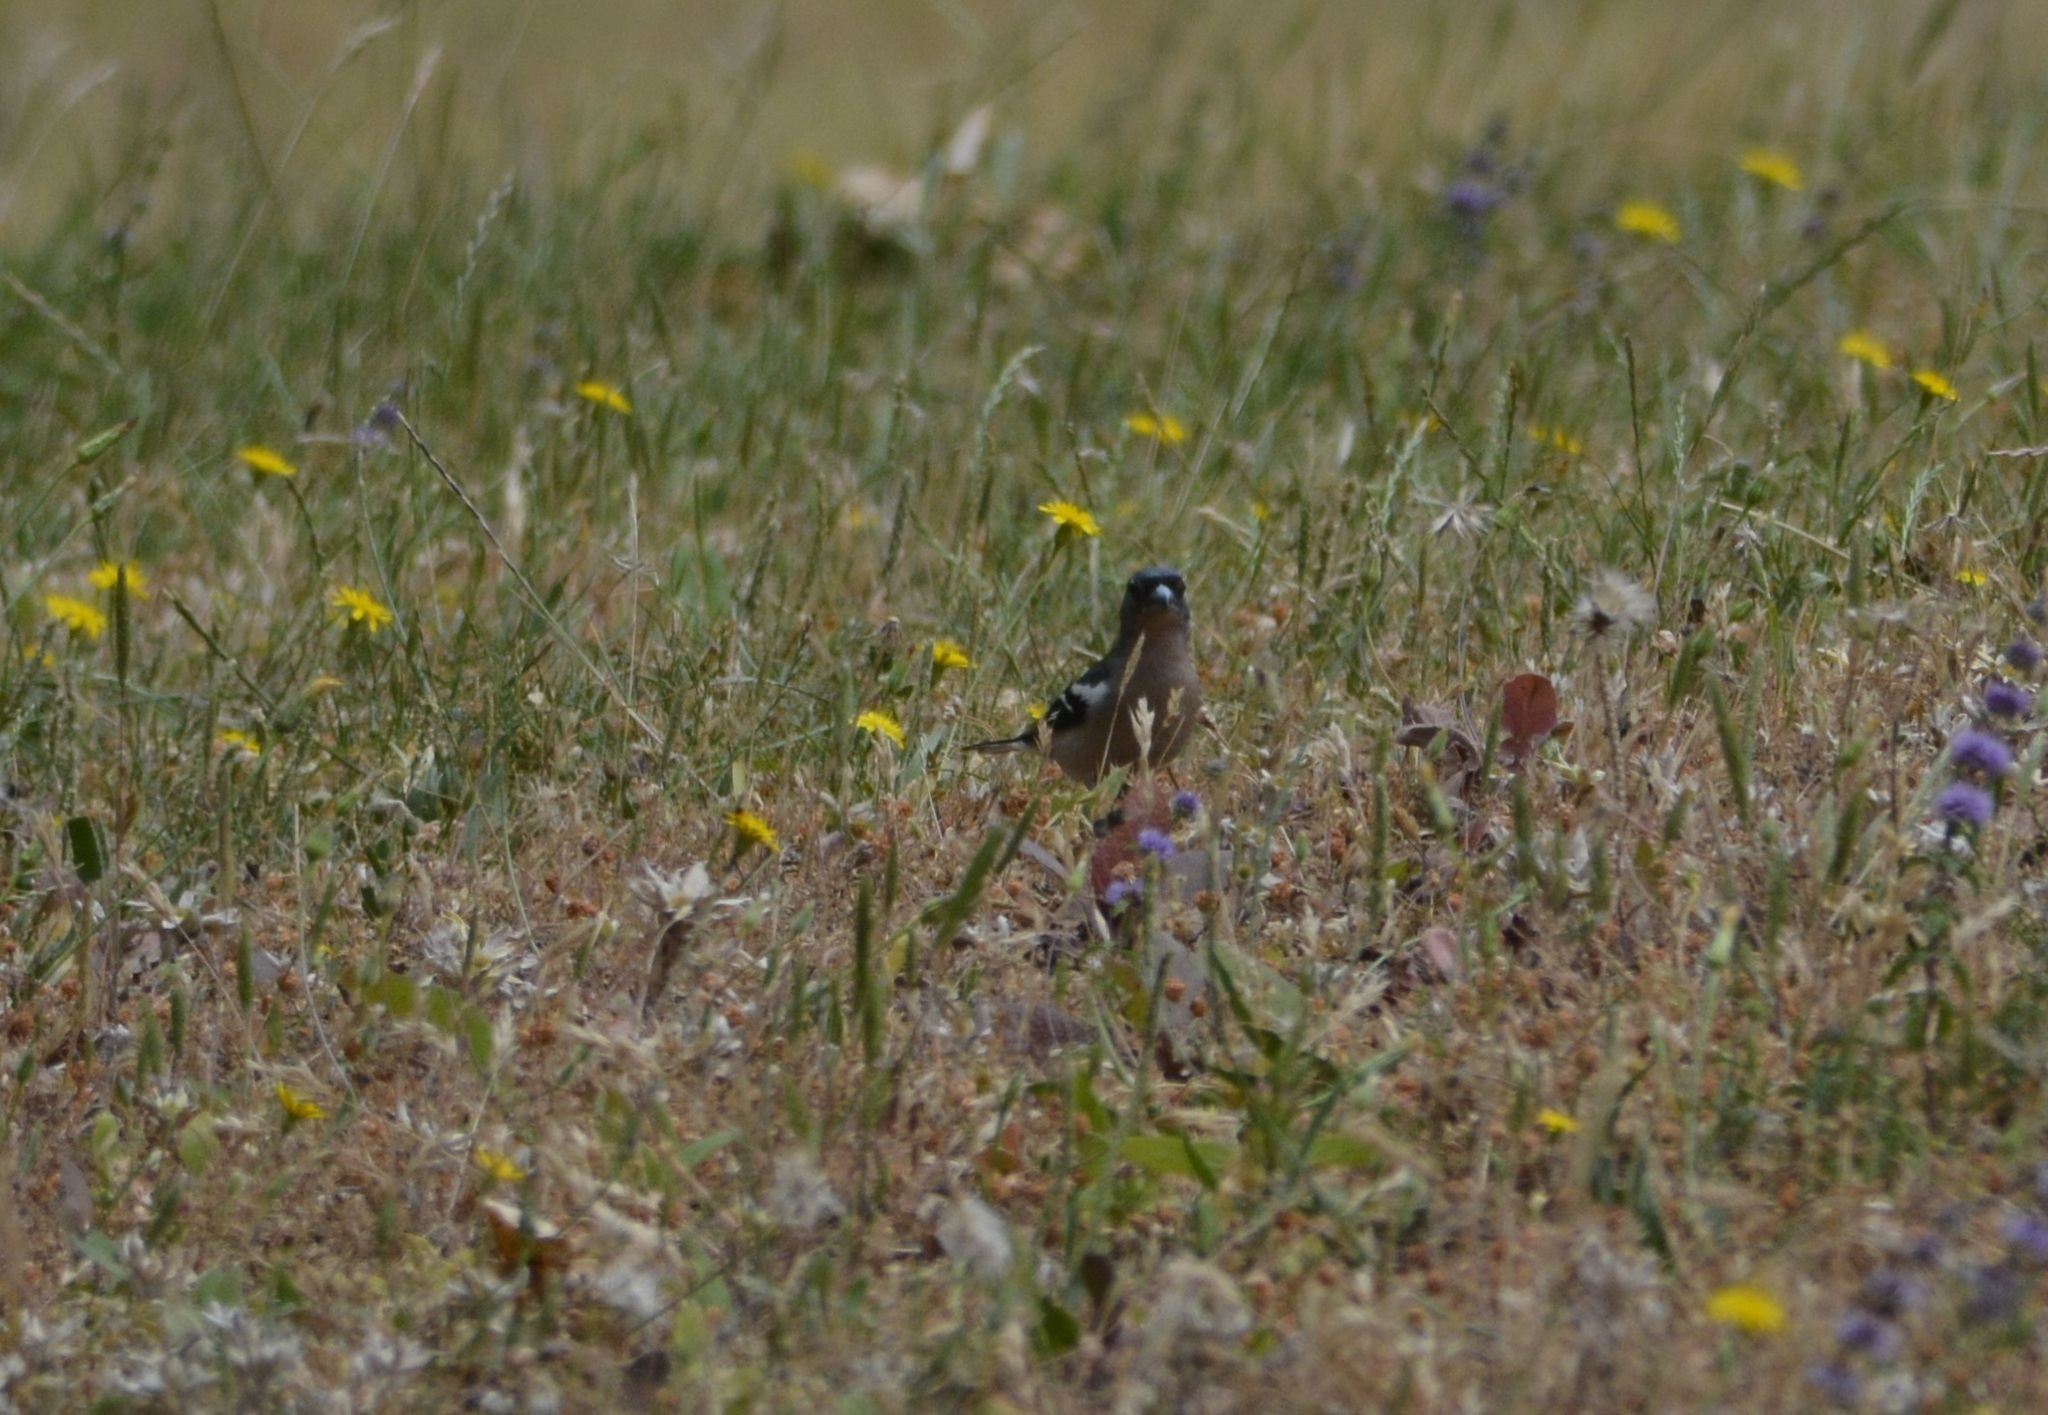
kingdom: Animalia
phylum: Chordata
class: Aves
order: Passeriformes
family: Fringillidae
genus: Fringilla
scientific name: Fringilla spodiogenys
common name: African chaffinch
